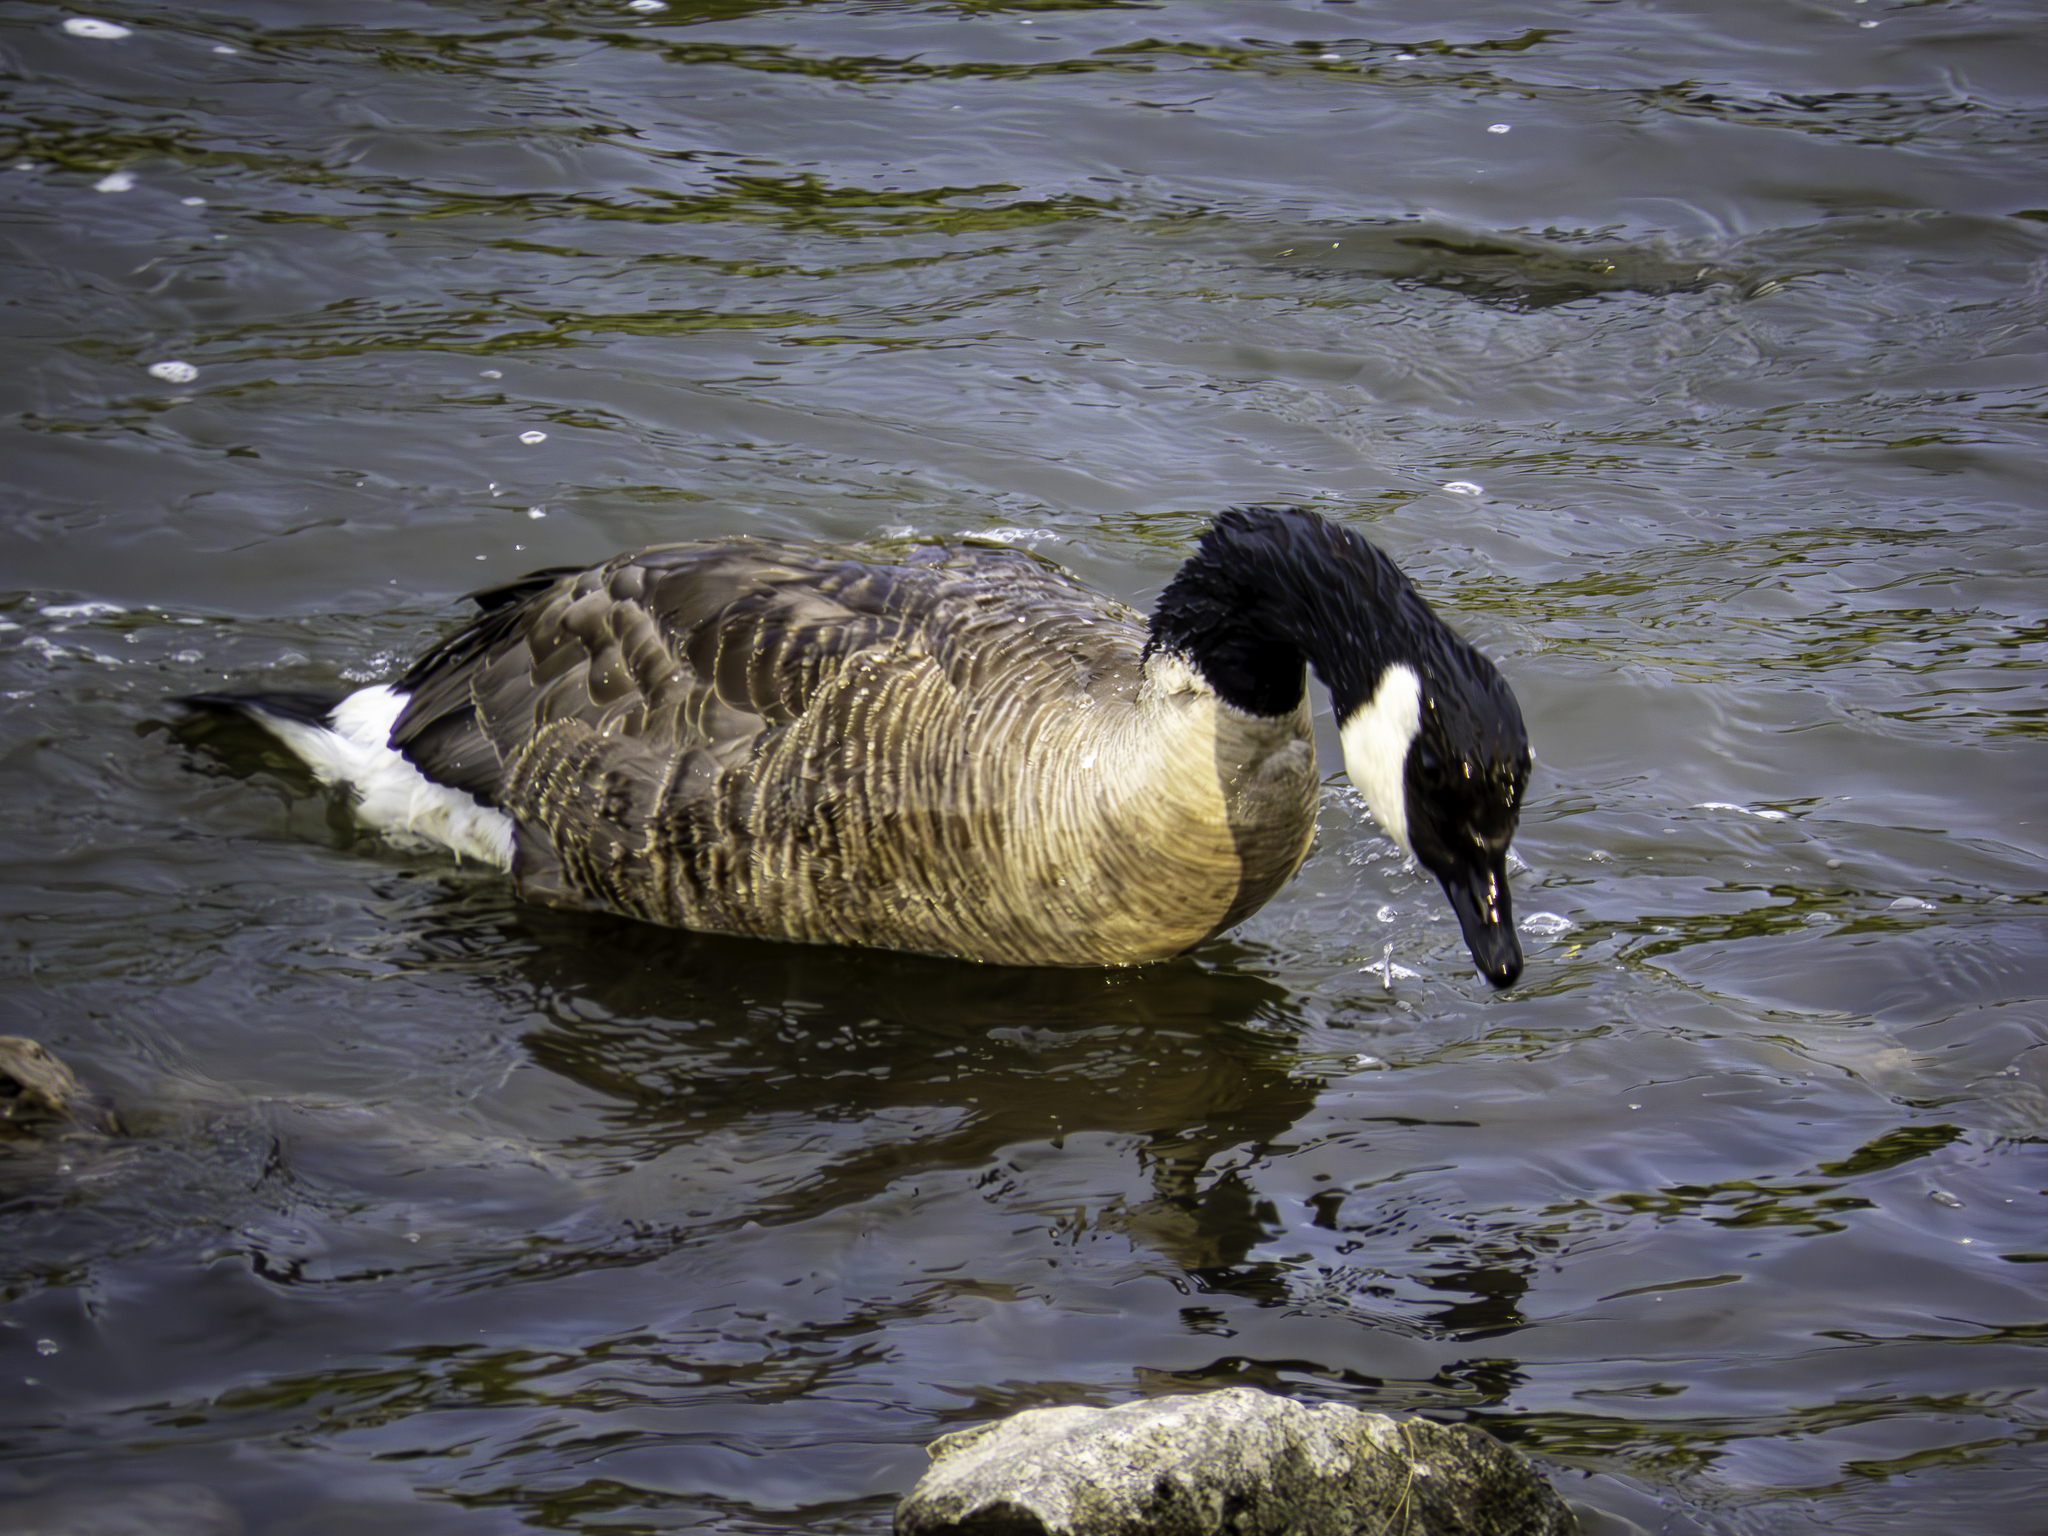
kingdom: Animalia
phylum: Chordata
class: Aves
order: Anseriformes
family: Anatidae
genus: Branta
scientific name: Branta canadensis
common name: Canada goose
